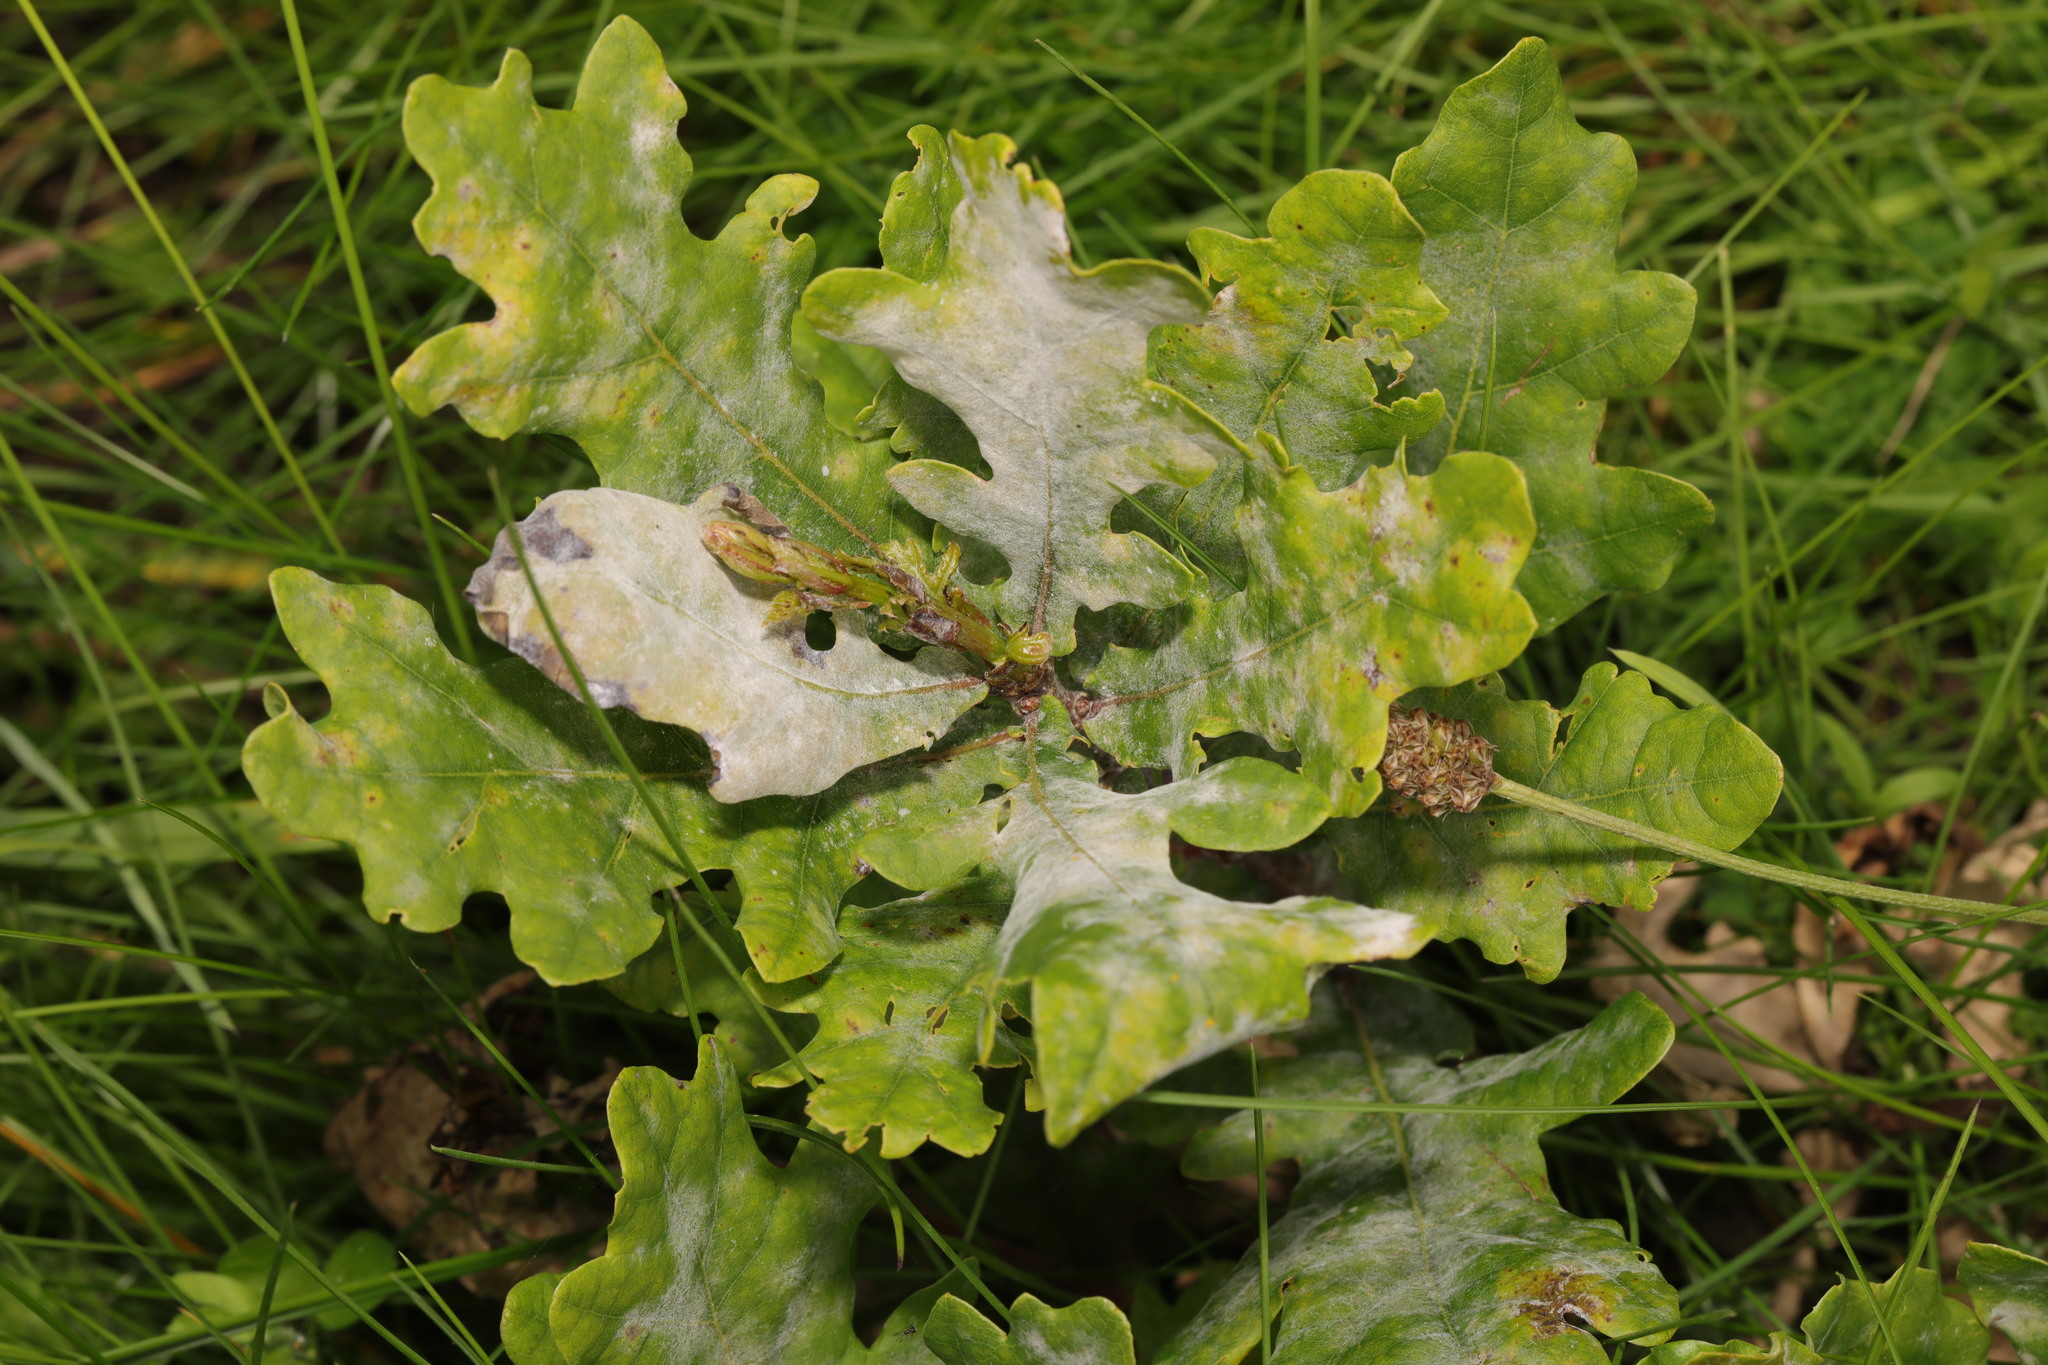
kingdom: Fungi
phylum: Ascomycota
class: Leotiomycetes
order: Helotiales
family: Erysiphaceae
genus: Erysiphe
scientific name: Erysiphe alphitoides
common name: Oak mildew
